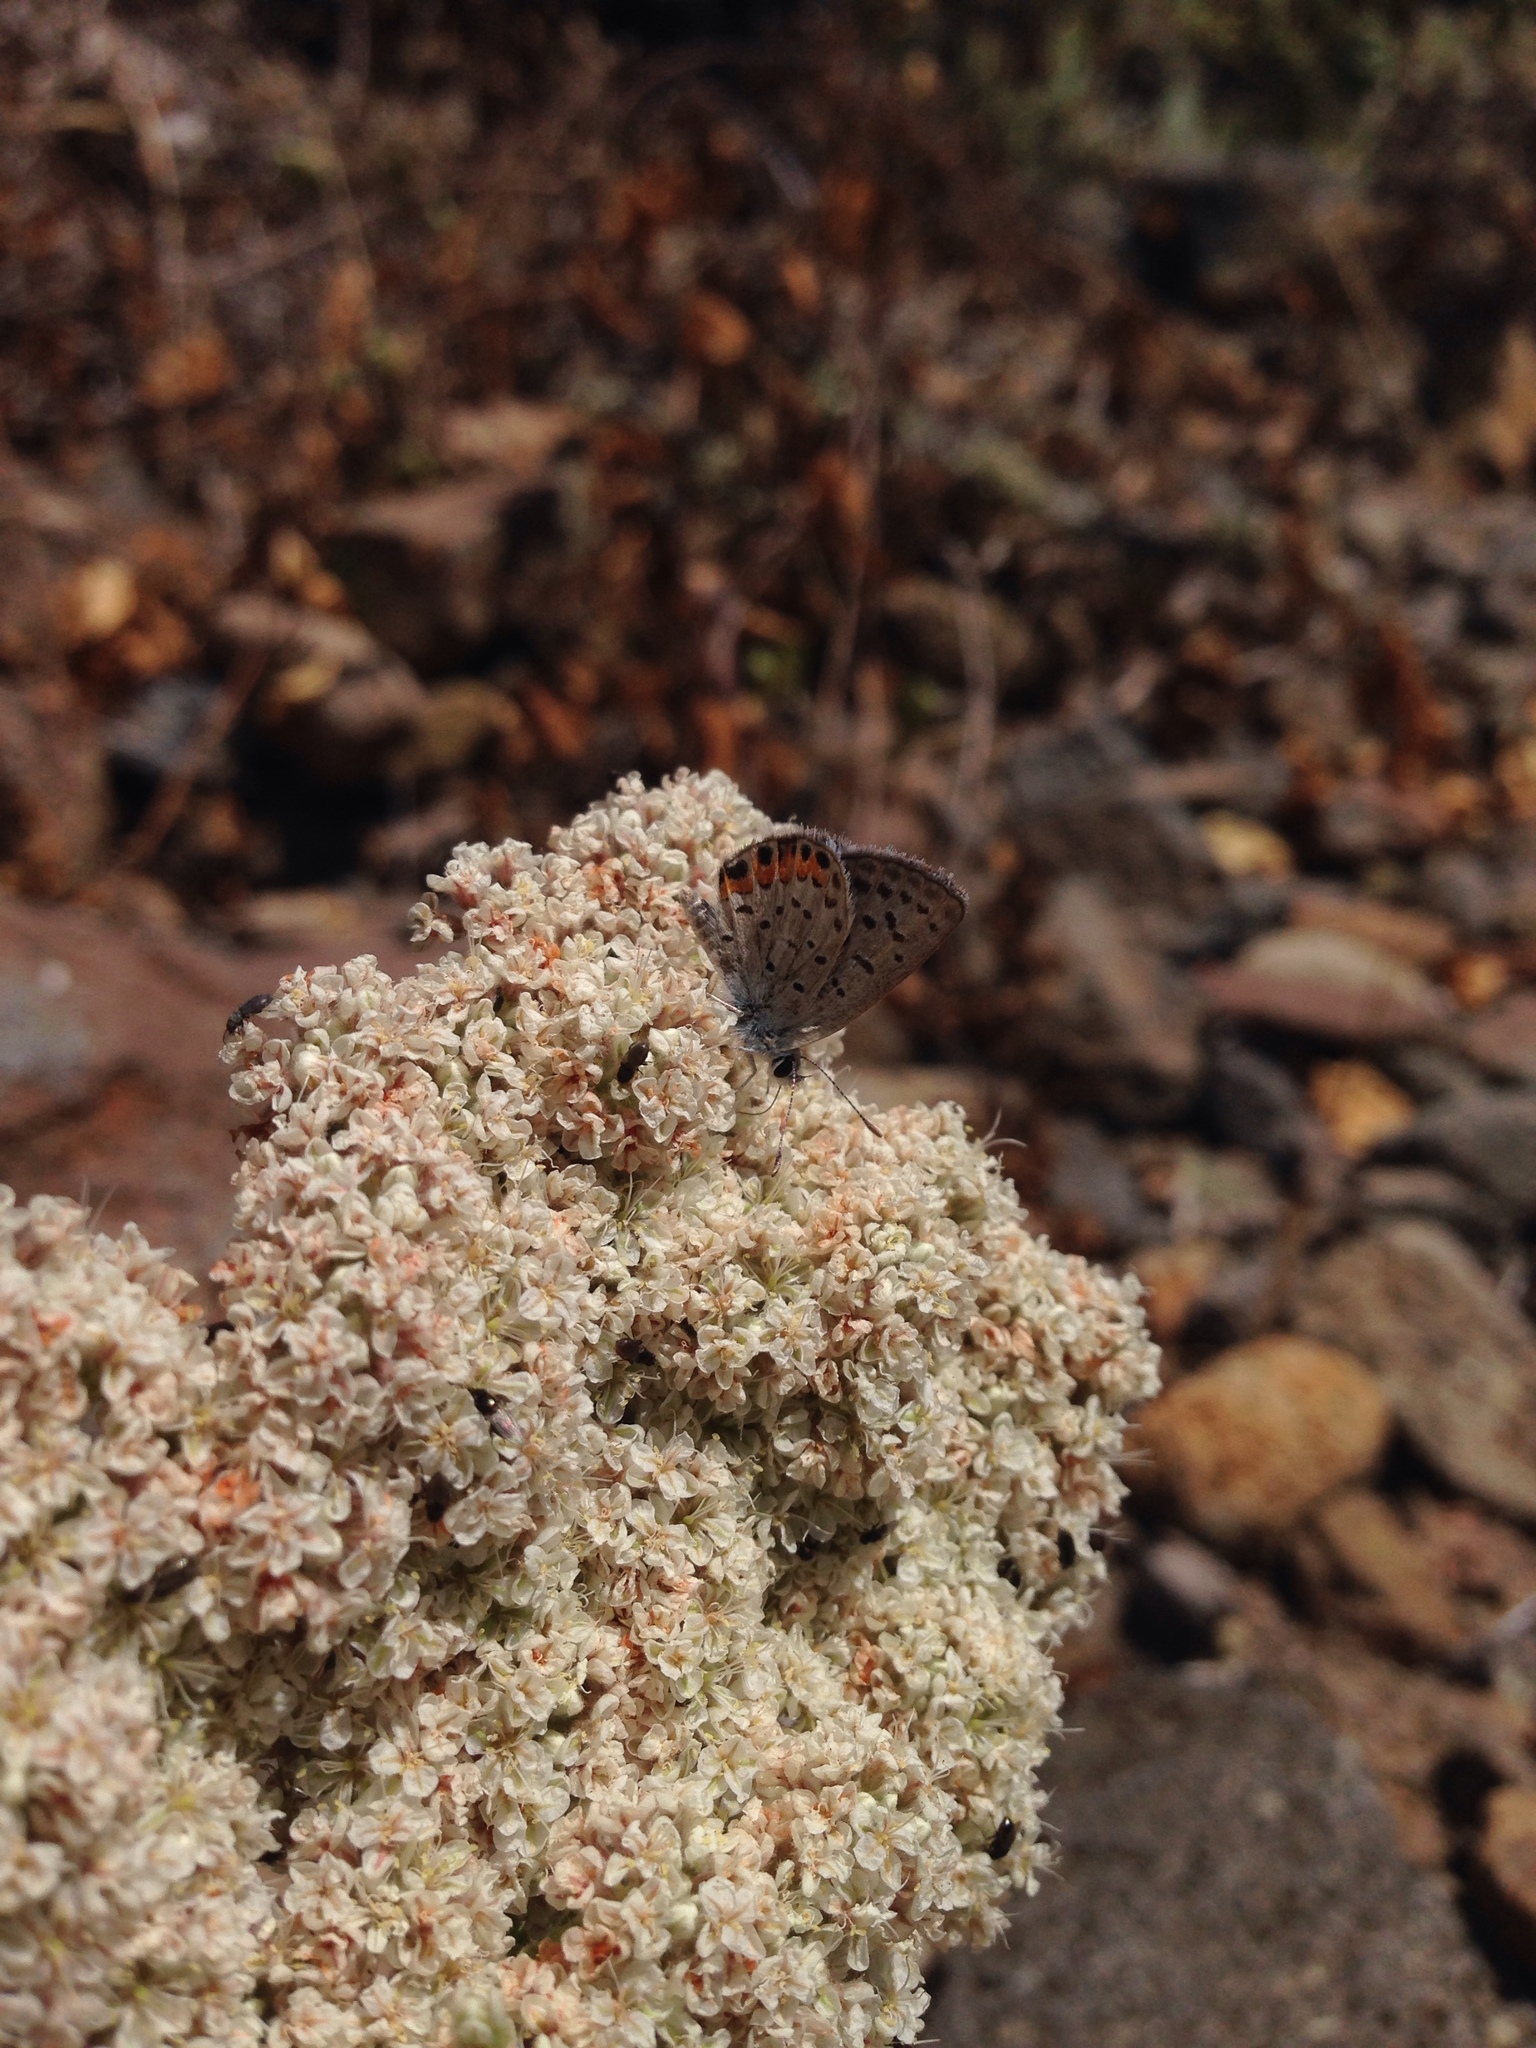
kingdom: Animalia
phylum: Arthropoda
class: Insecta
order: Lepidoptera
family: Lycaenidae
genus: Icaricia
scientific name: Icaricia acmon
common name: Acmon blue
